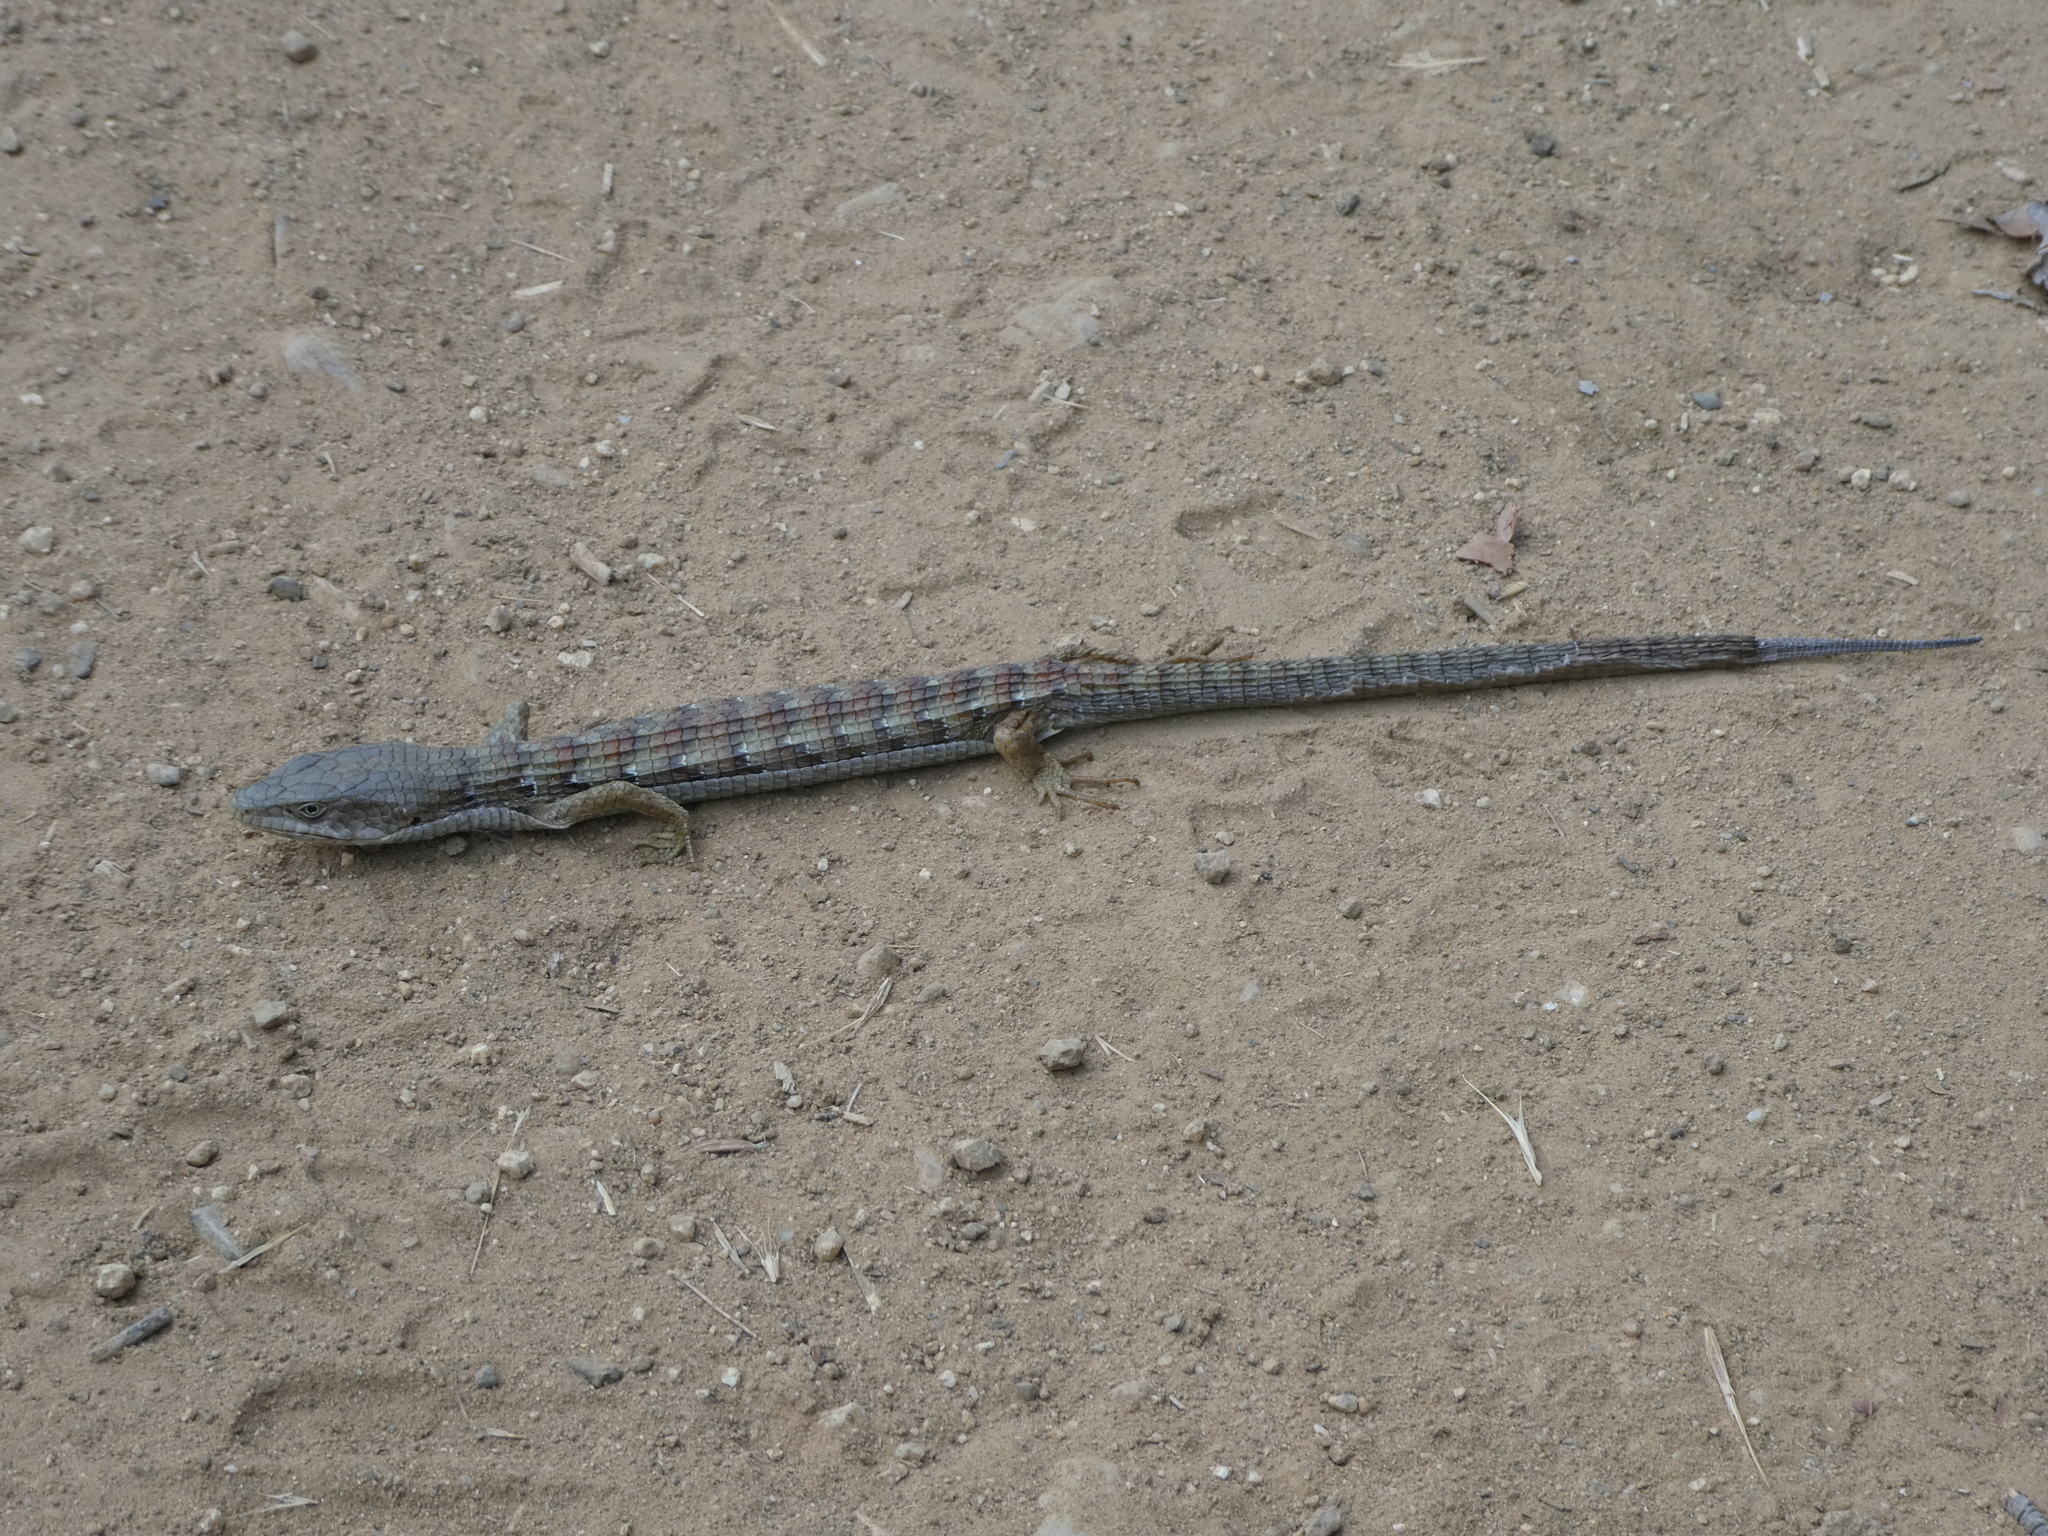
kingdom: Animalia
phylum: Chordata
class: Squamata
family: Anguidae
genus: Elgaria
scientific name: Elgaria multicarinata
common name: Southern alligator lizard
